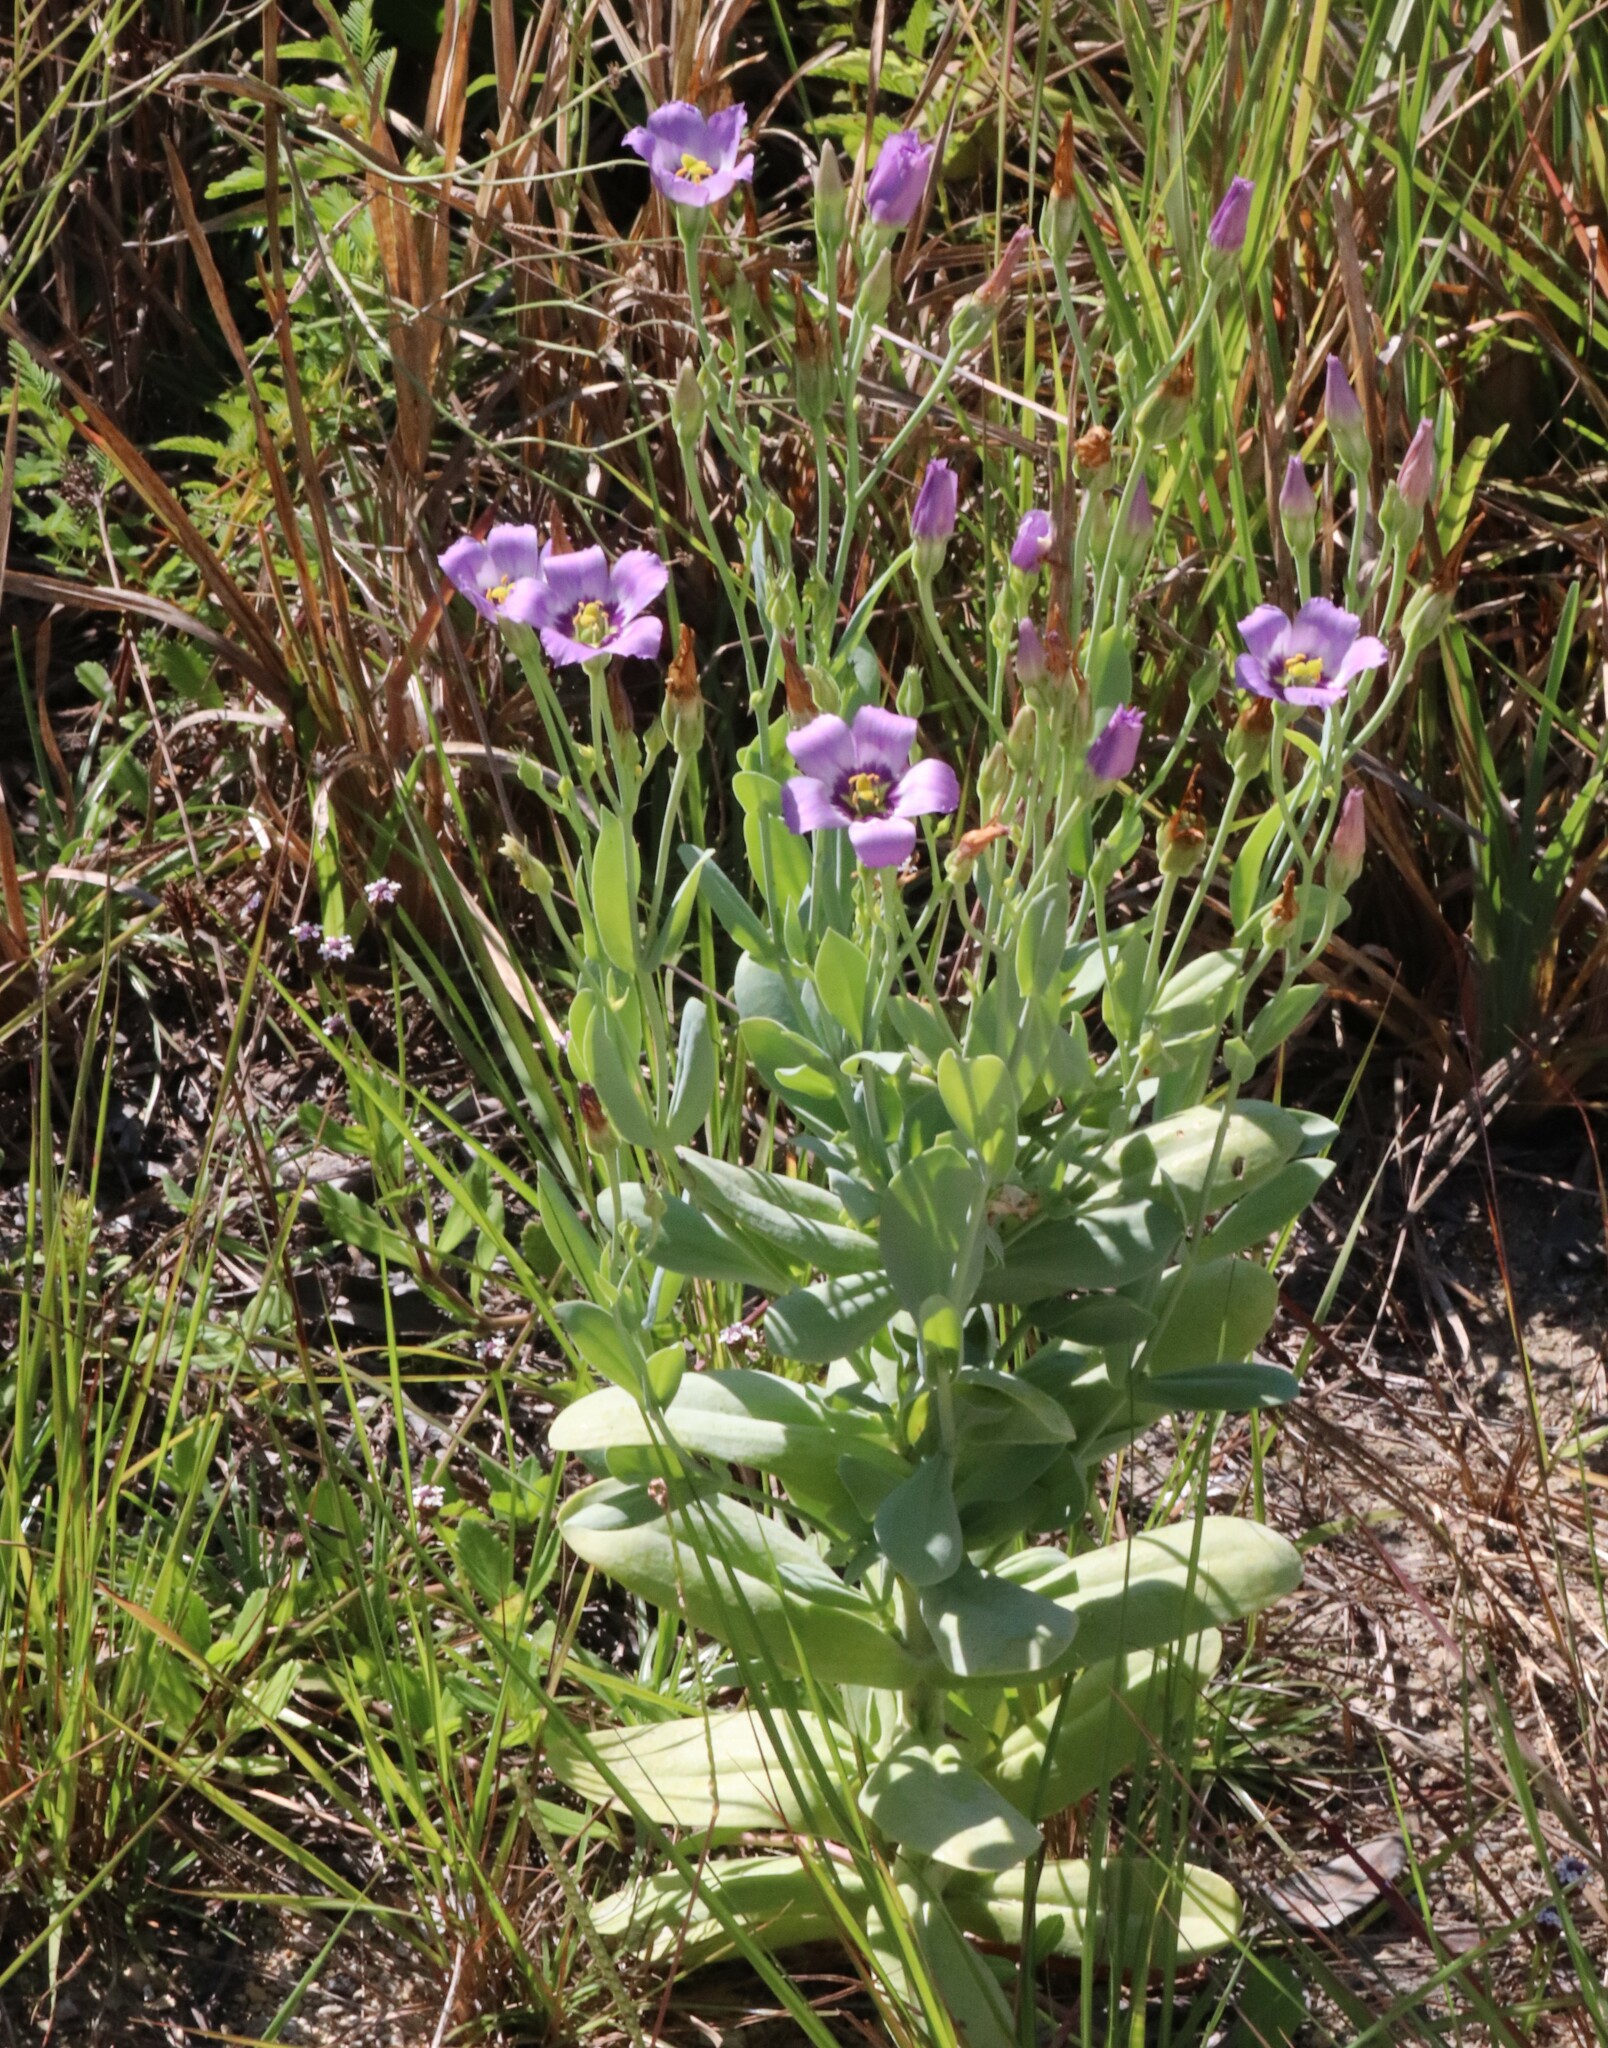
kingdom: Plantae
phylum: Tracheophyta
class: Magnoliopsida
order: Gentianales
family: Gentianaceae
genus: Eustoma
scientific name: Eustoma exaltatum
